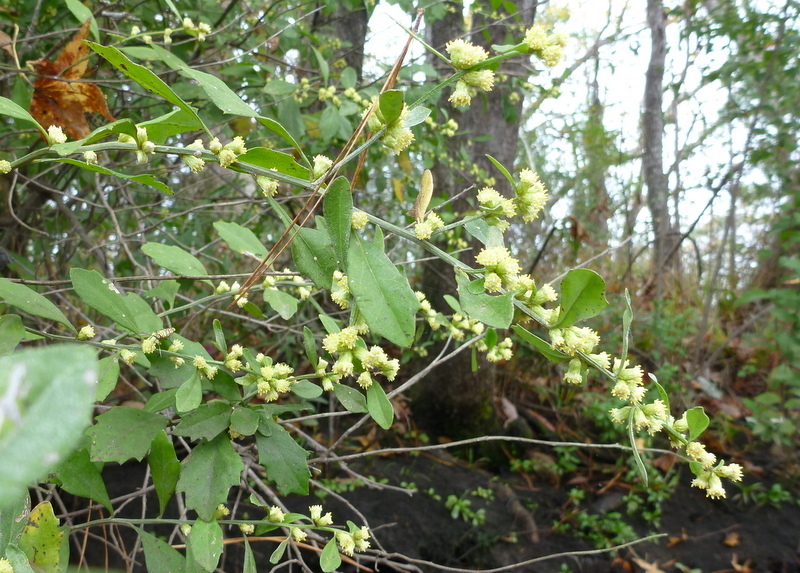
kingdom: Plantae
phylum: Tracheophyta
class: Magnoliopsida
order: Asterales
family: Asteraceae
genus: Baccharis
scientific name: Baccharis glomeruliflora
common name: Silverling groundsel bush
